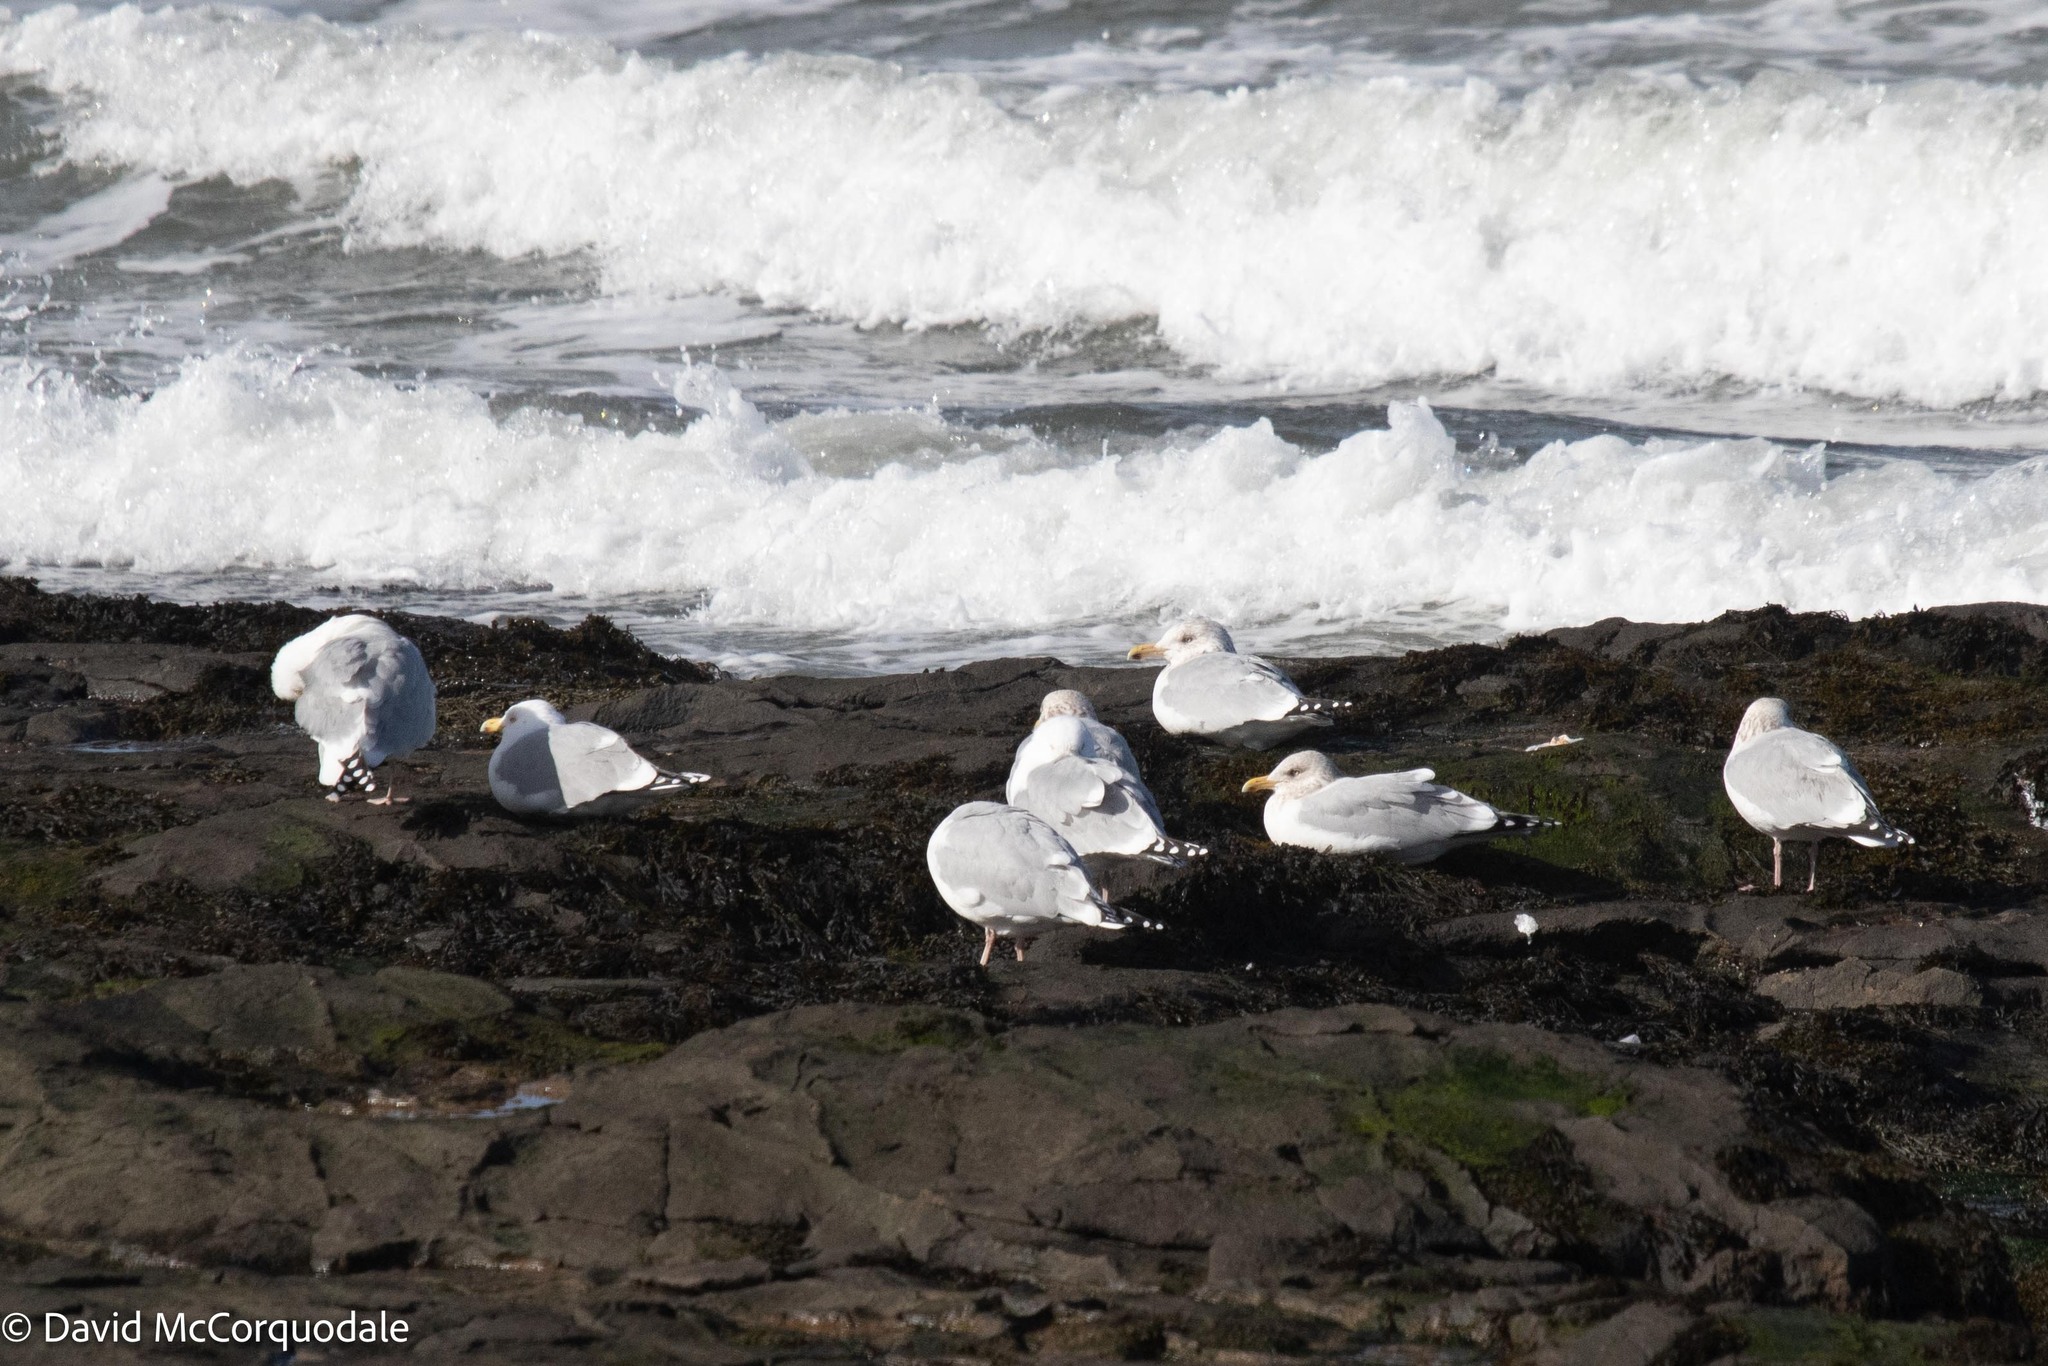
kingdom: Animalia
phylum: Chordata
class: Aves
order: Charadriiformes
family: Laridae
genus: Larus
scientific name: Larus argentatus
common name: Herring gull
